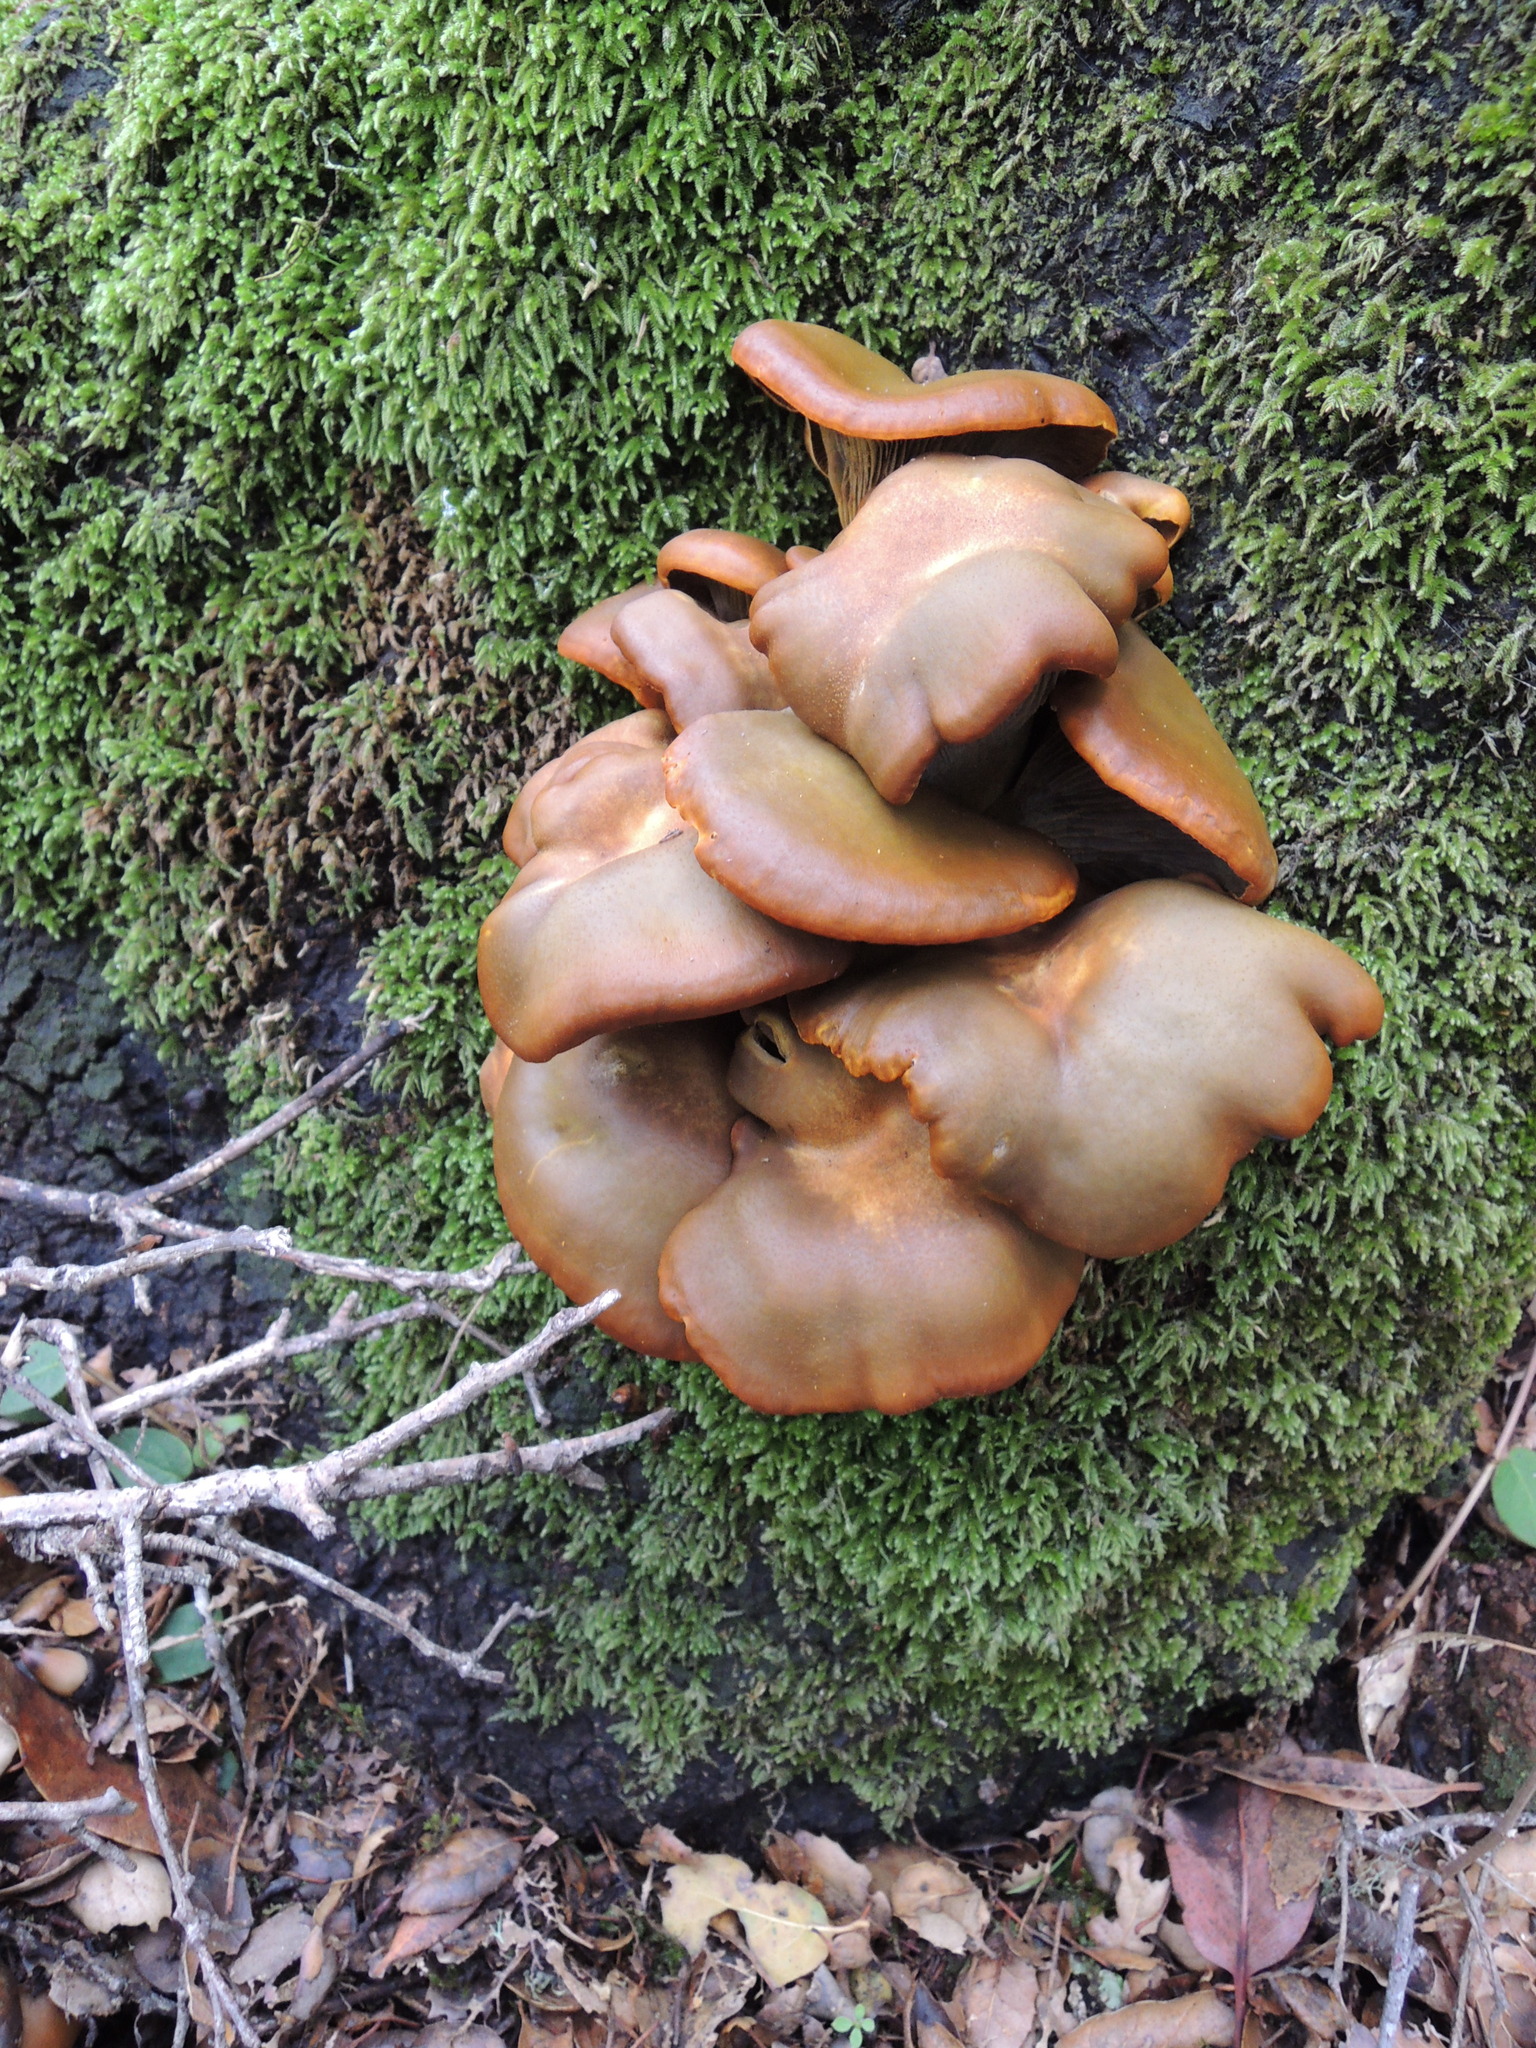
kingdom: Fungi
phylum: Basidiomycota
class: Agaricomycetes
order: Agaricales
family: Omphalotaceae
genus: Omphalotus
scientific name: Omphalotus olivascens
